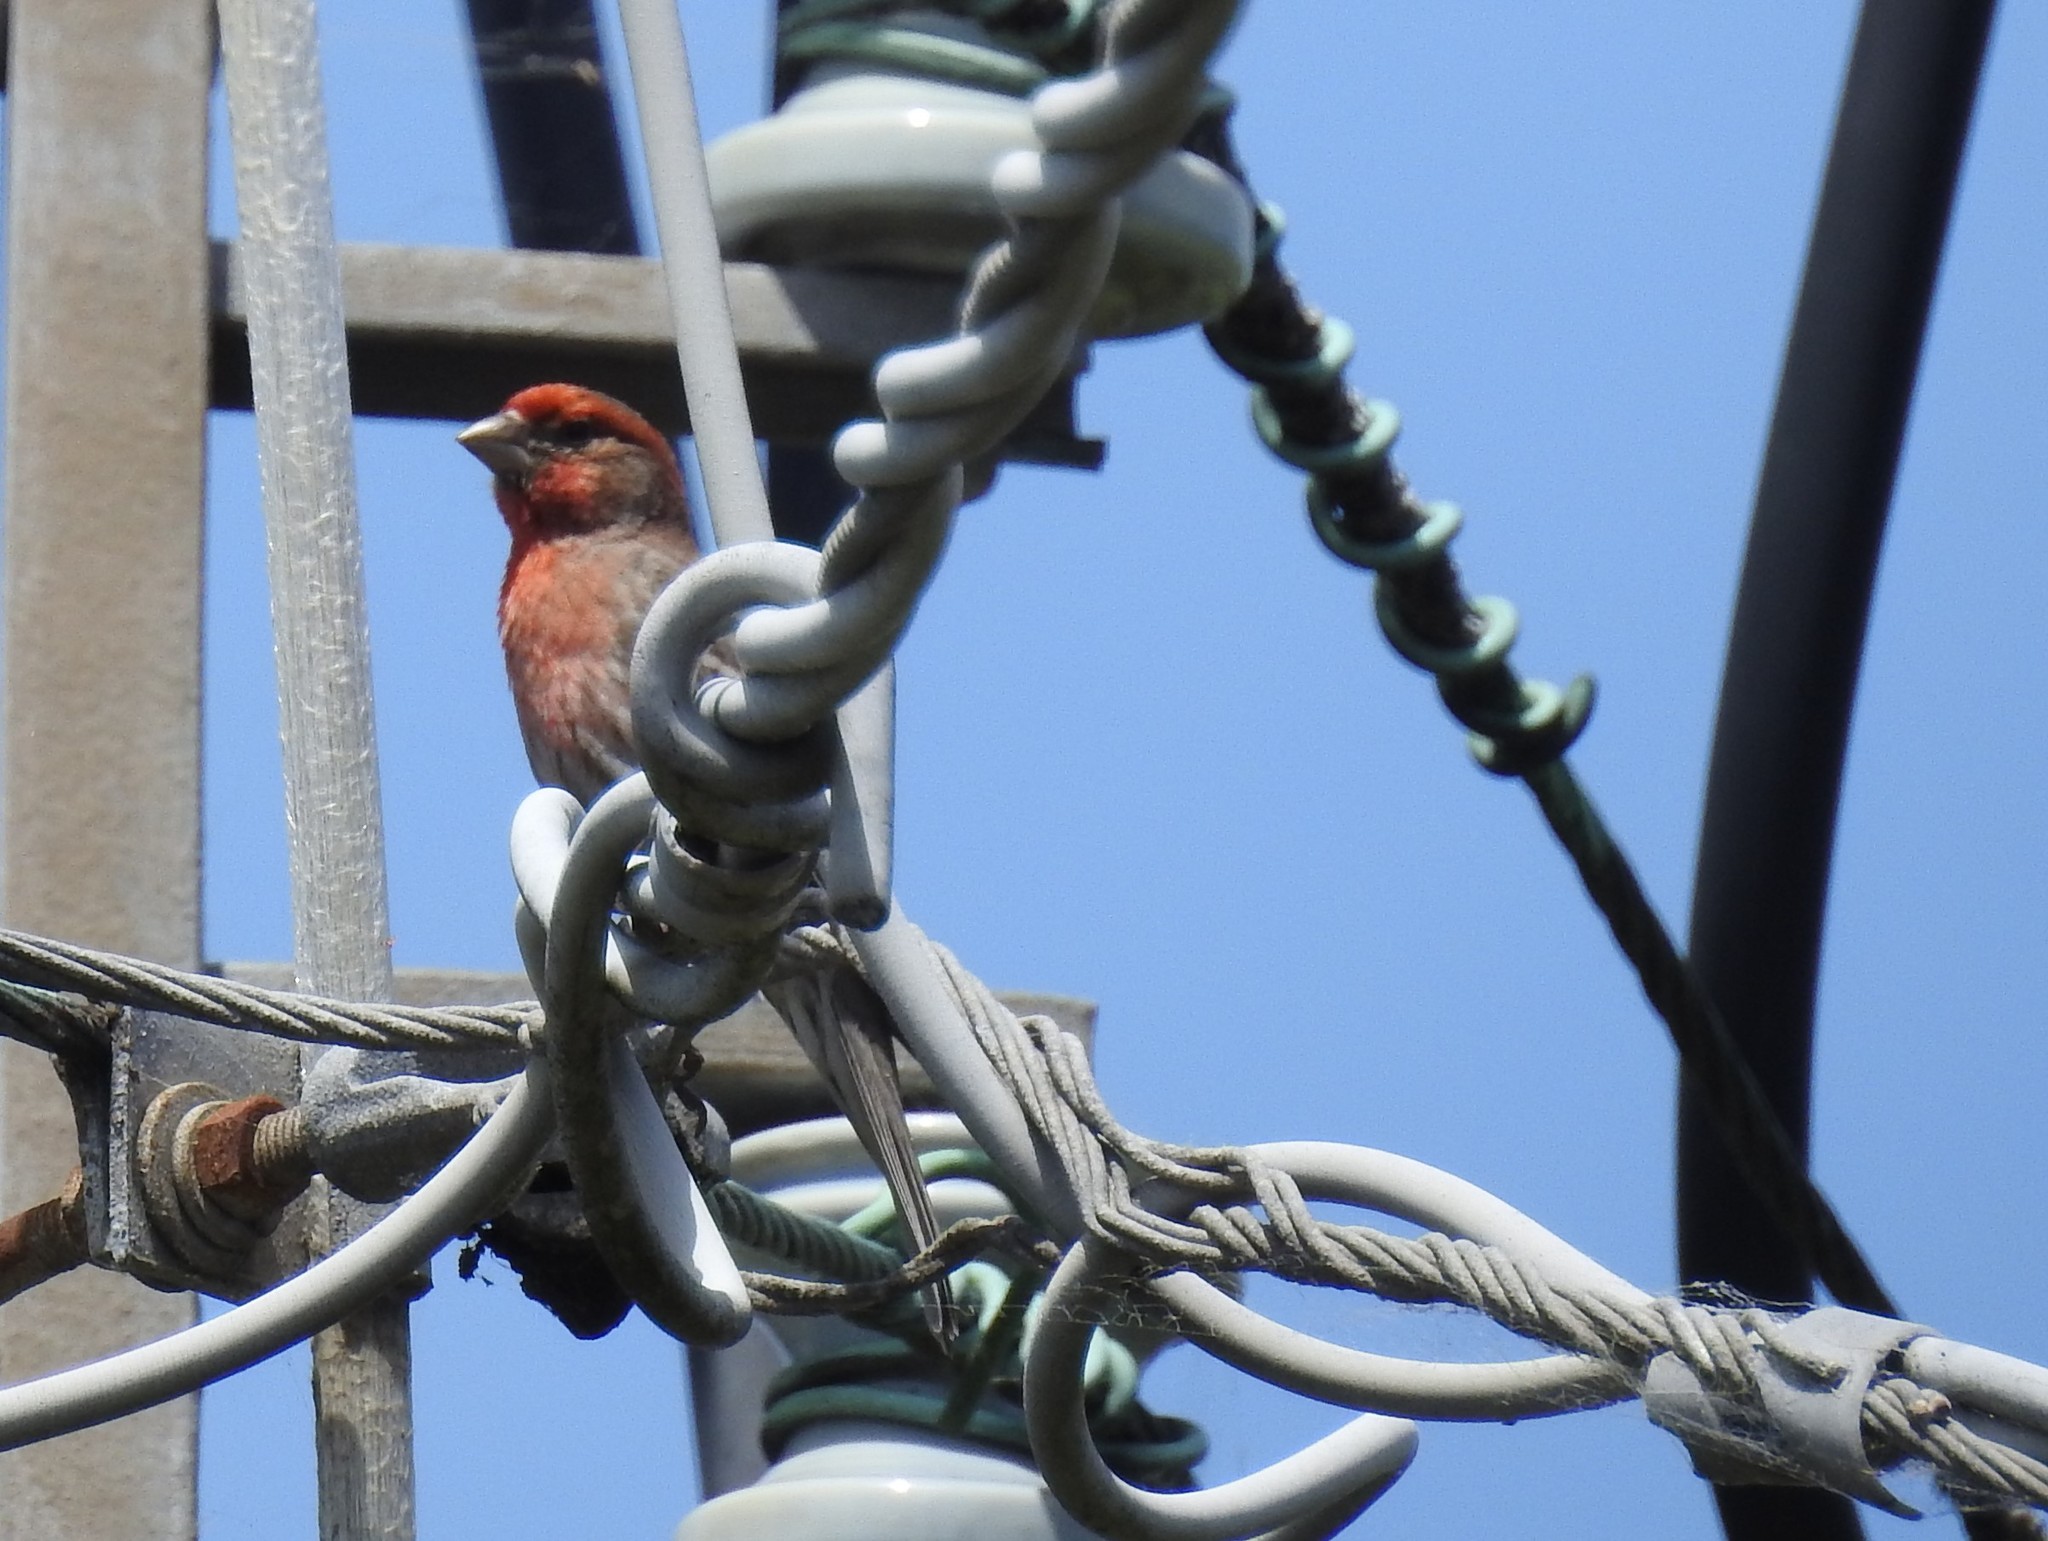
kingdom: Animalia
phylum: Chordata
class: Aves
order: Passeriformes
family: Fringillidae
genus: Haemorhous
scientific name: Haemorhous mexicanus
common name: House finch
